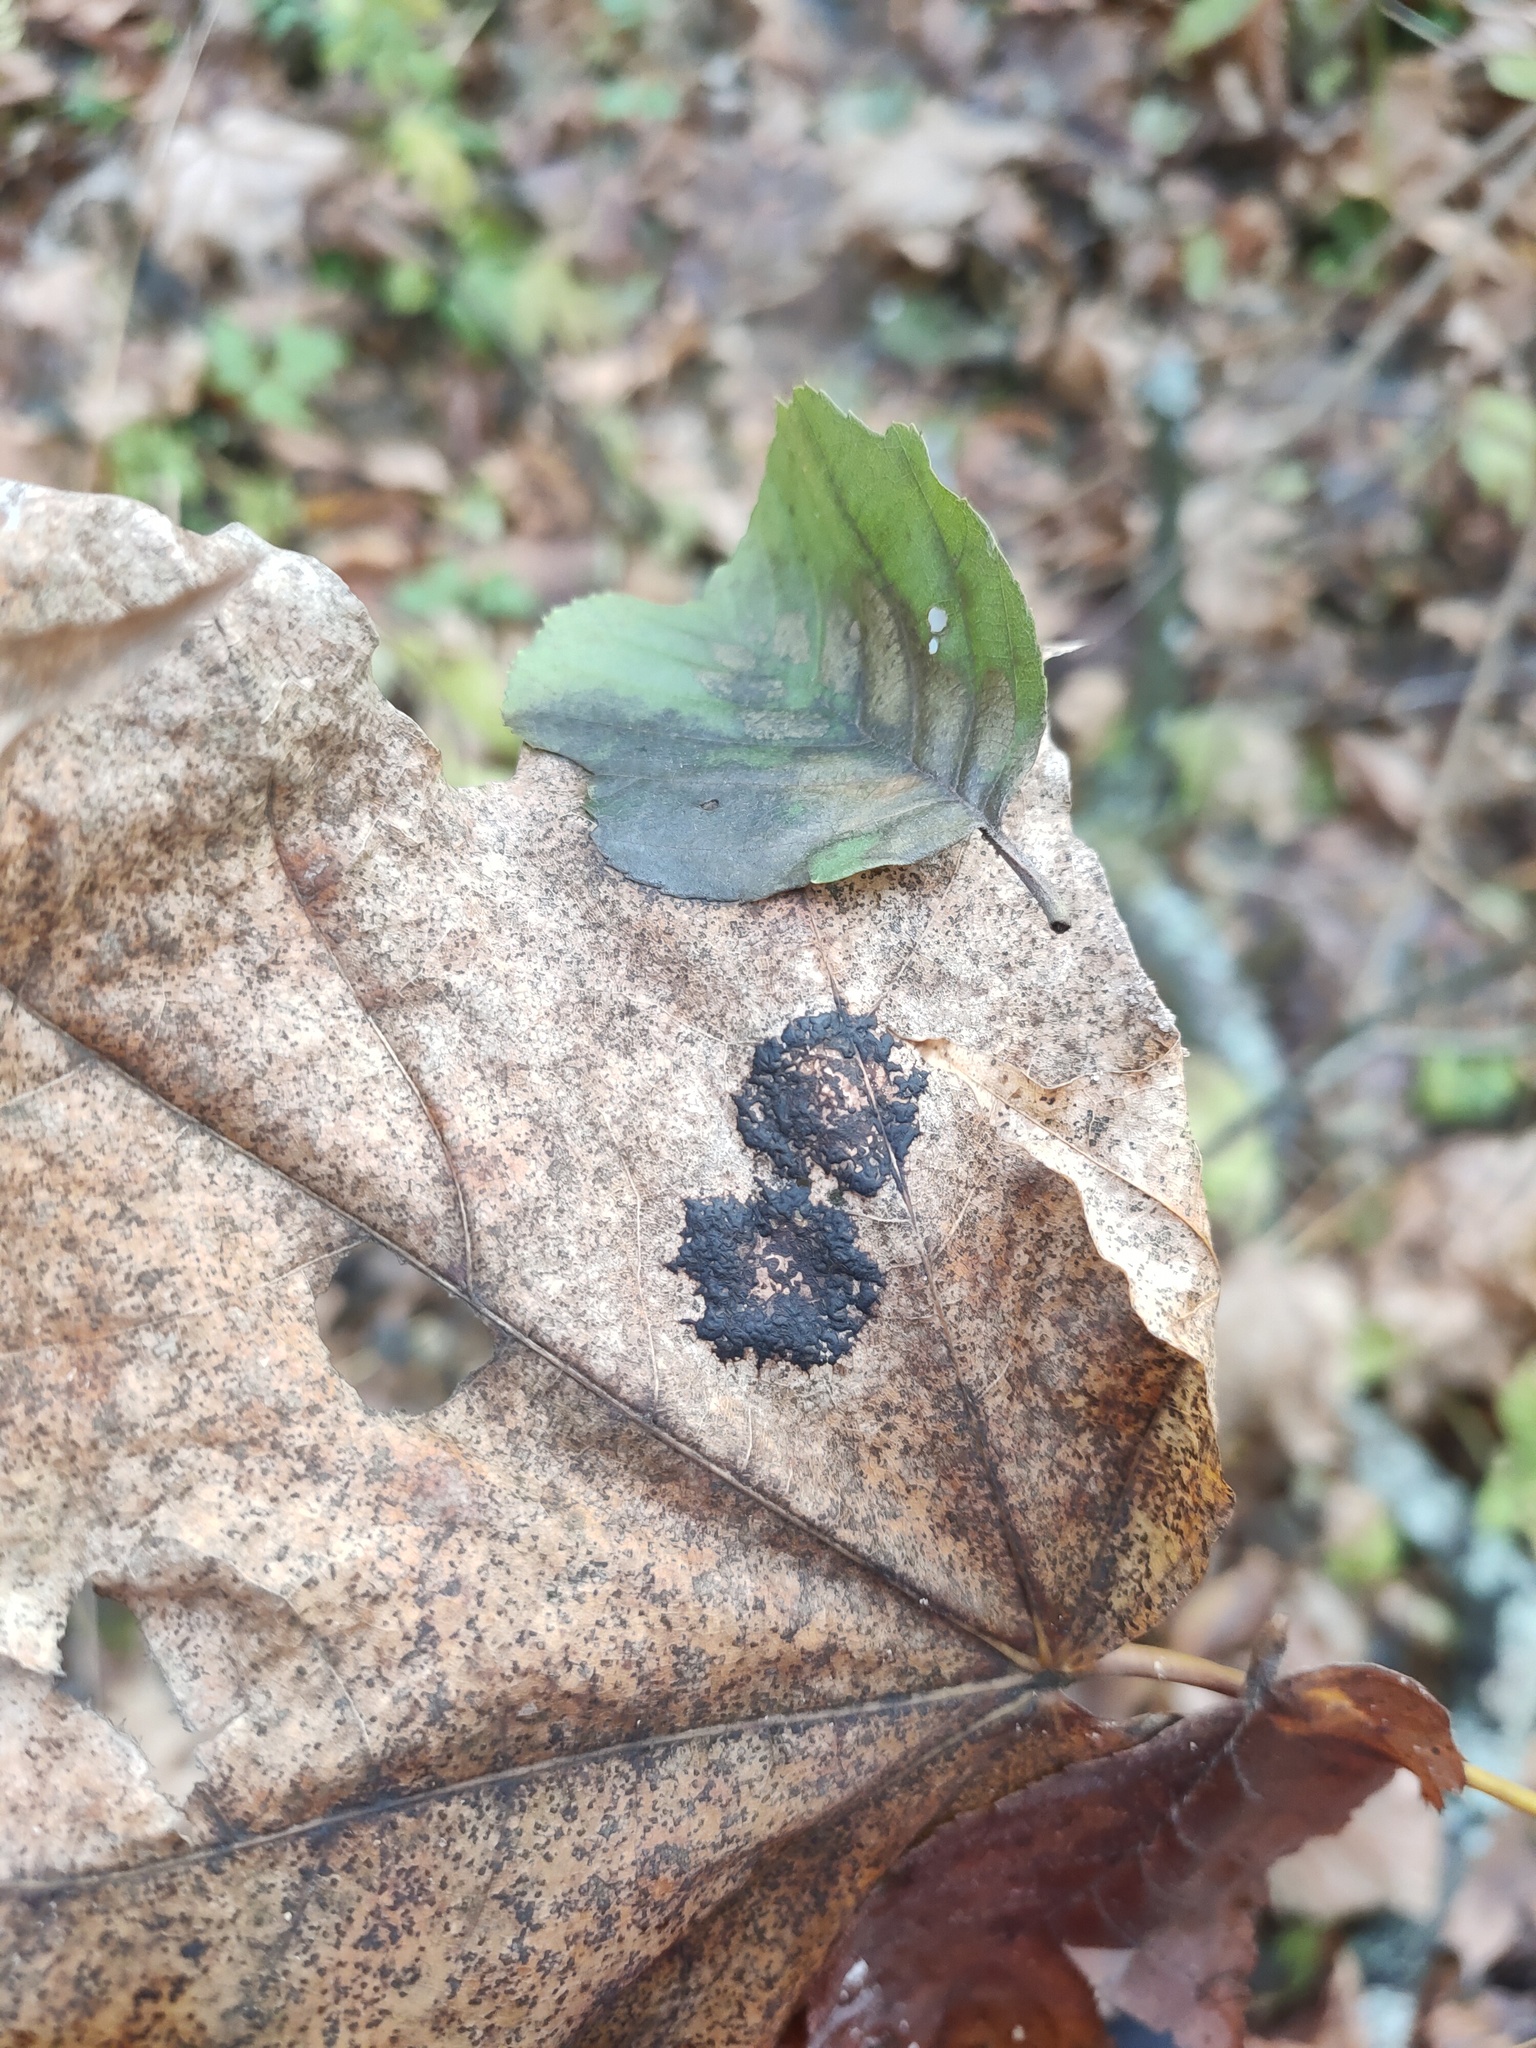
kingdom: Fungi
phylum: Ascomycota
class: Leotiomycetes
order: Rhytismatales
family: Rhytismataceae
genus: Rhytisma
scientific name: Rhytisma acerinum
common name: European tar spot
